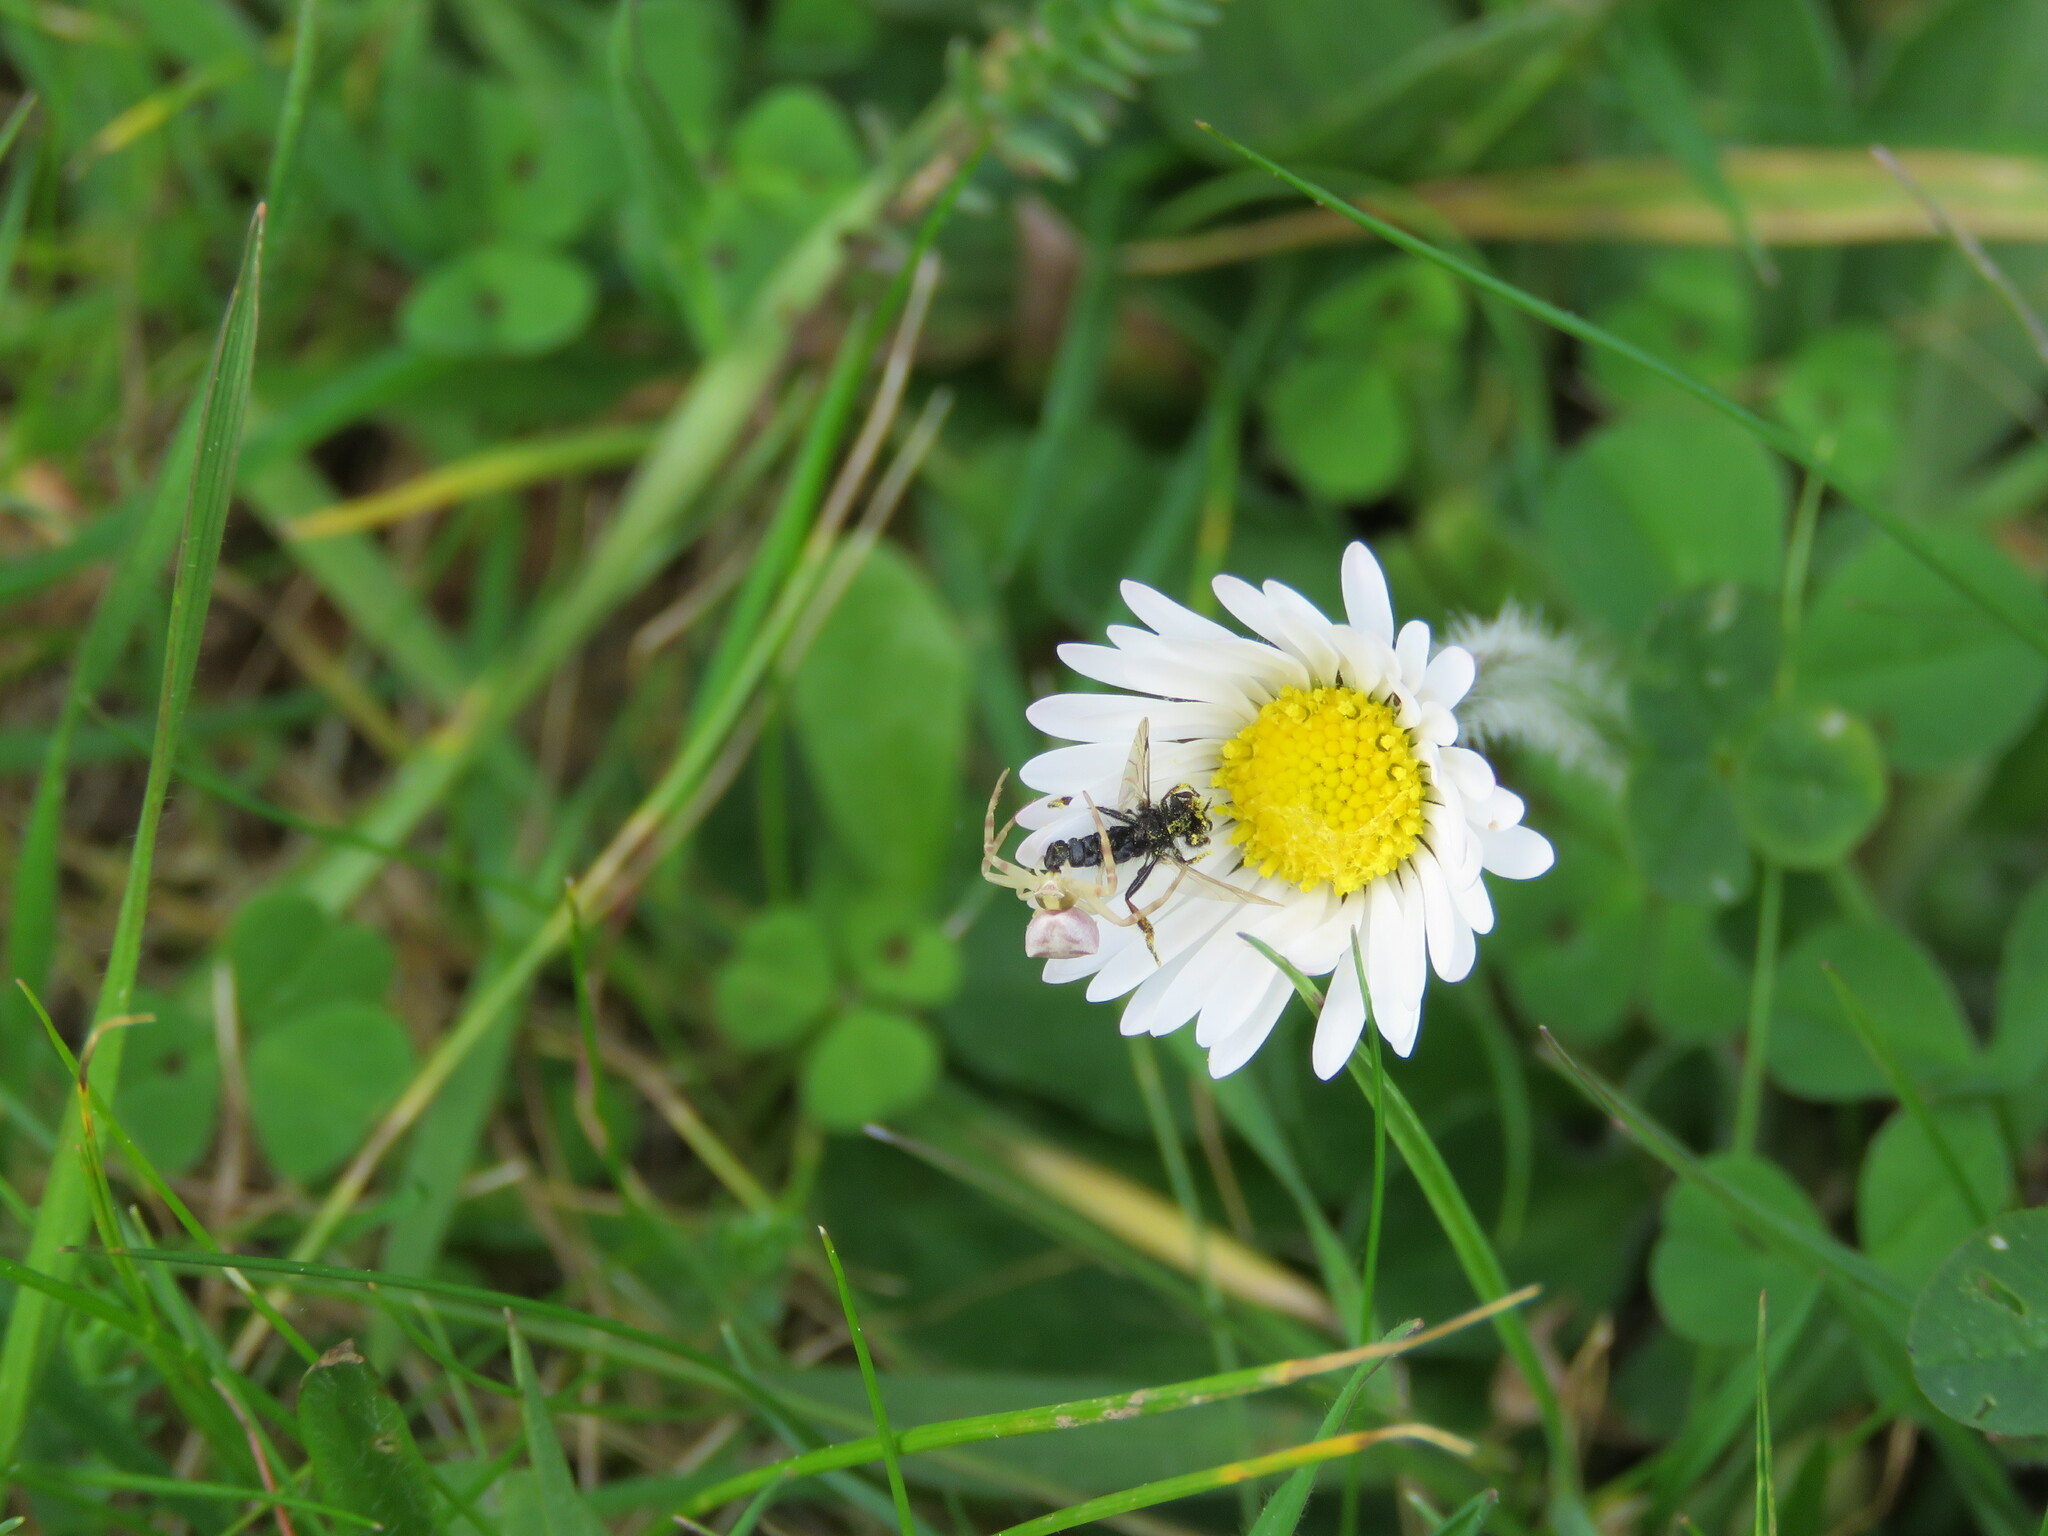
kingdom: Animalia
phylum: Arthropoda
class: Arachnida
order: Araneae
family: Thomisidae
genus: Thomisus
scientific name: Thomisus onustus
